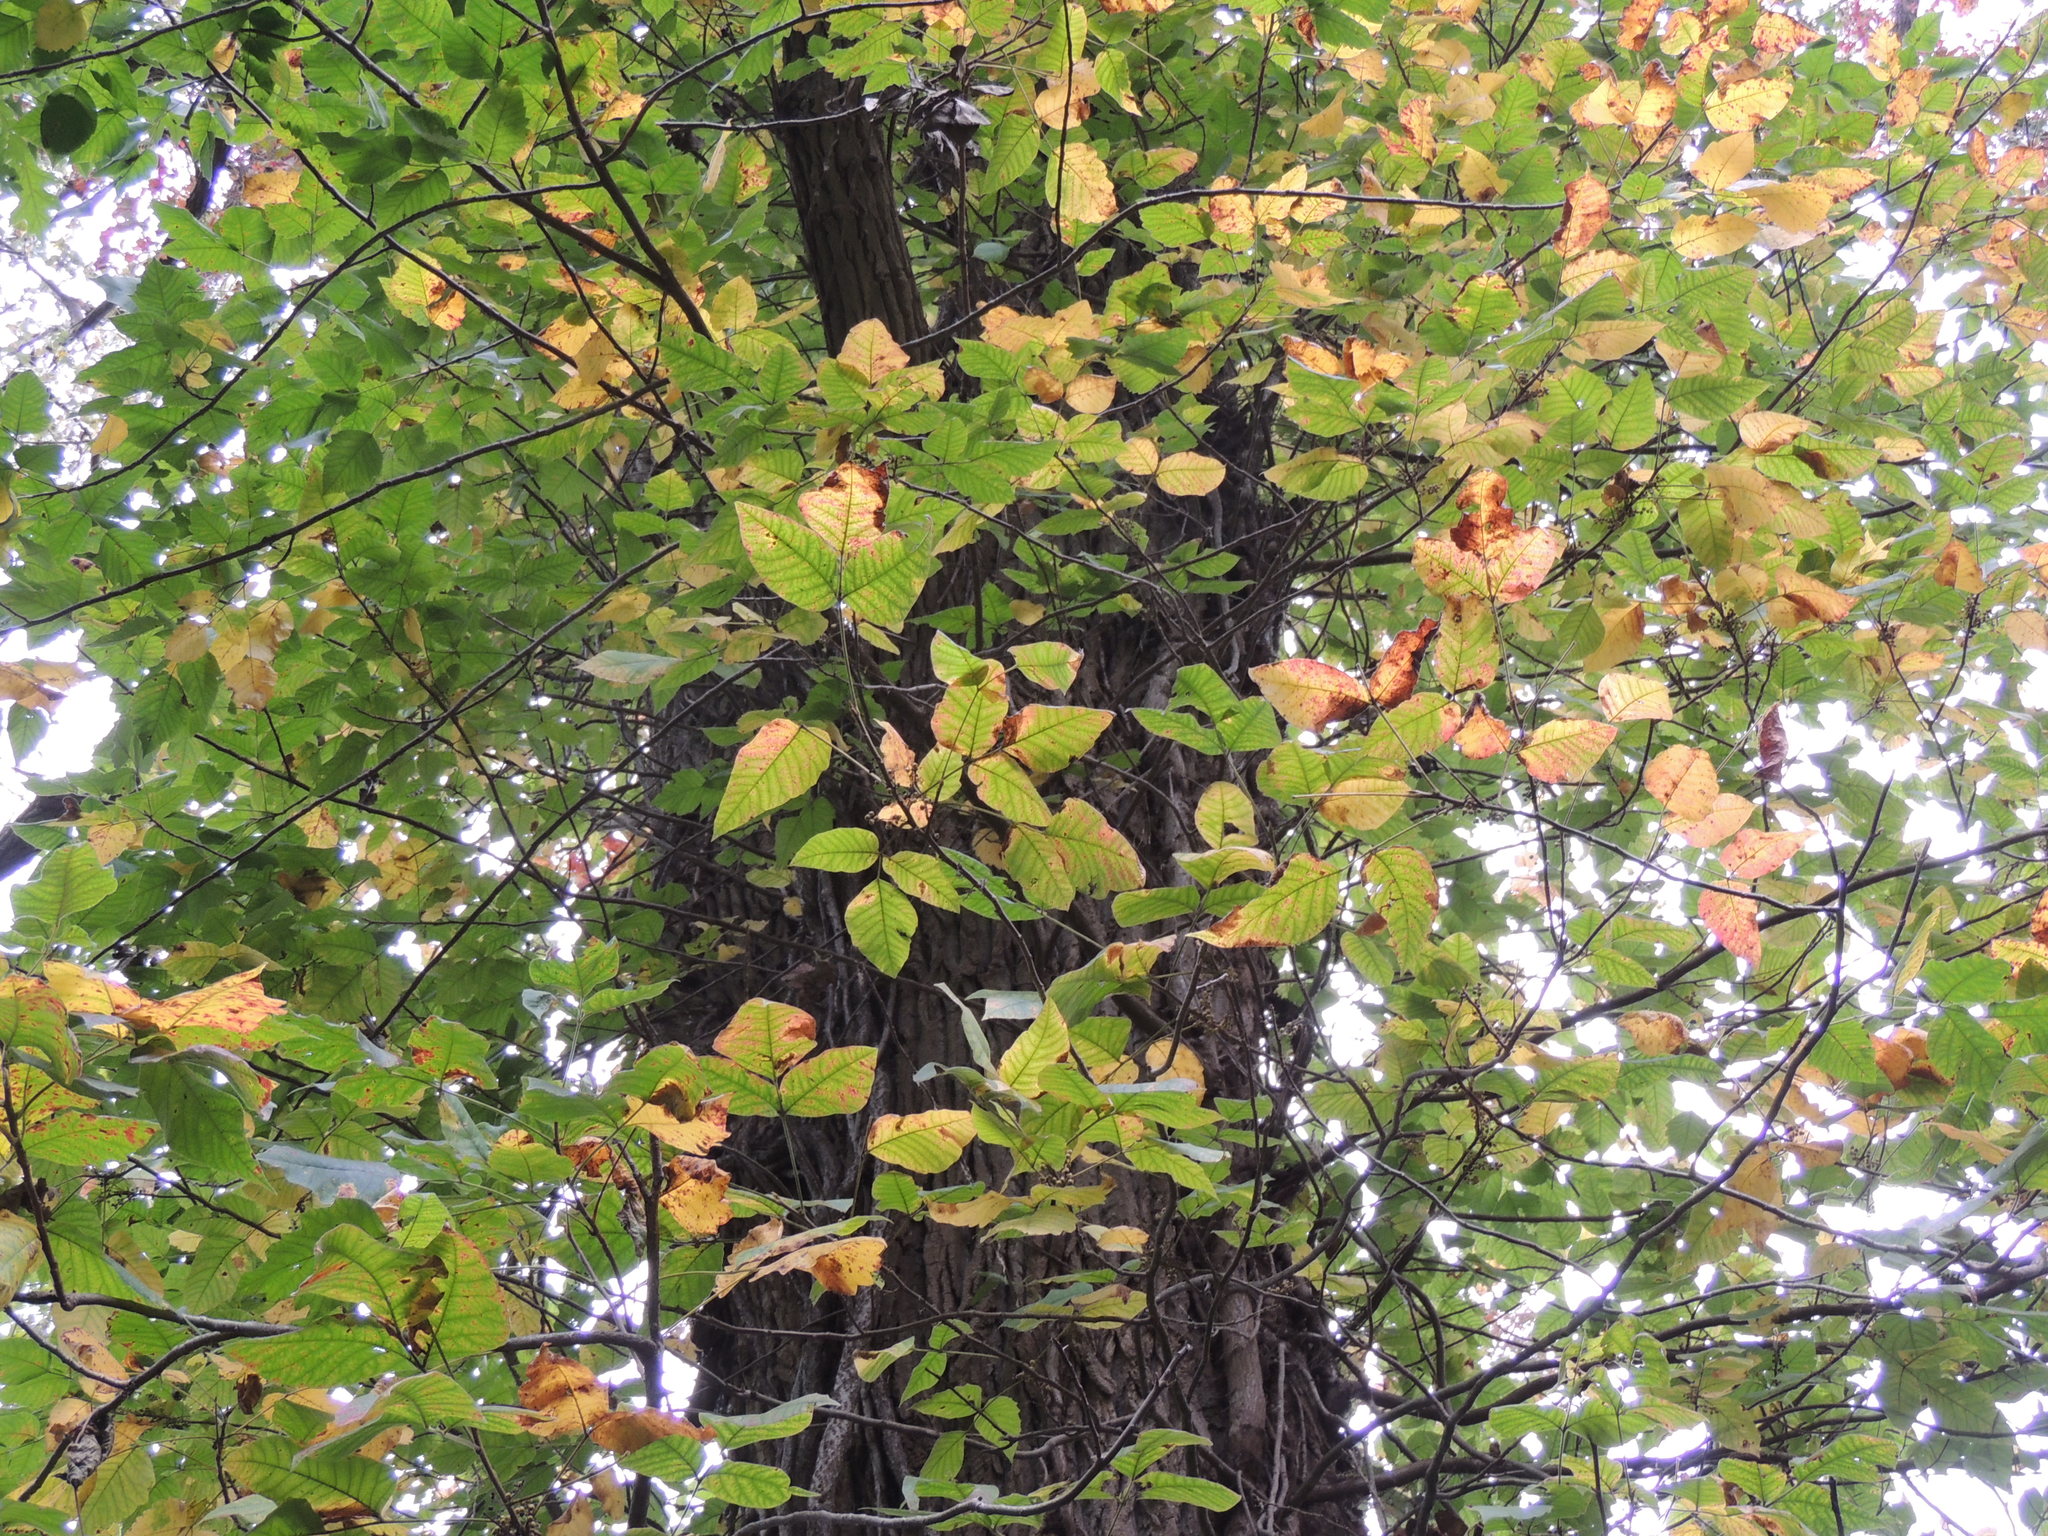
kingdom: Plantae
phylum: Tracheophyta
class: Magnoliopsida
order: Fagales
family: Juglandaceae
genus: Carya
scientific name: Carya ovata
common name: Shagbark hickory
